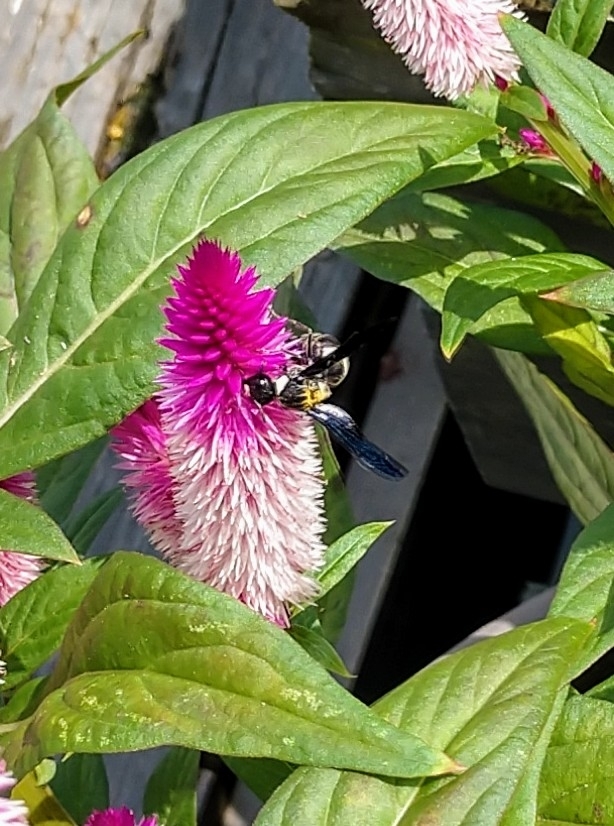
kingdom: Animalia
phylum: Arthropoda
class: Insecta
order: Hymenoptera
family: Eumenidae
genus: Monobia
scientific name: Monobia quadridens
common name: Four-toothed mason wasp
